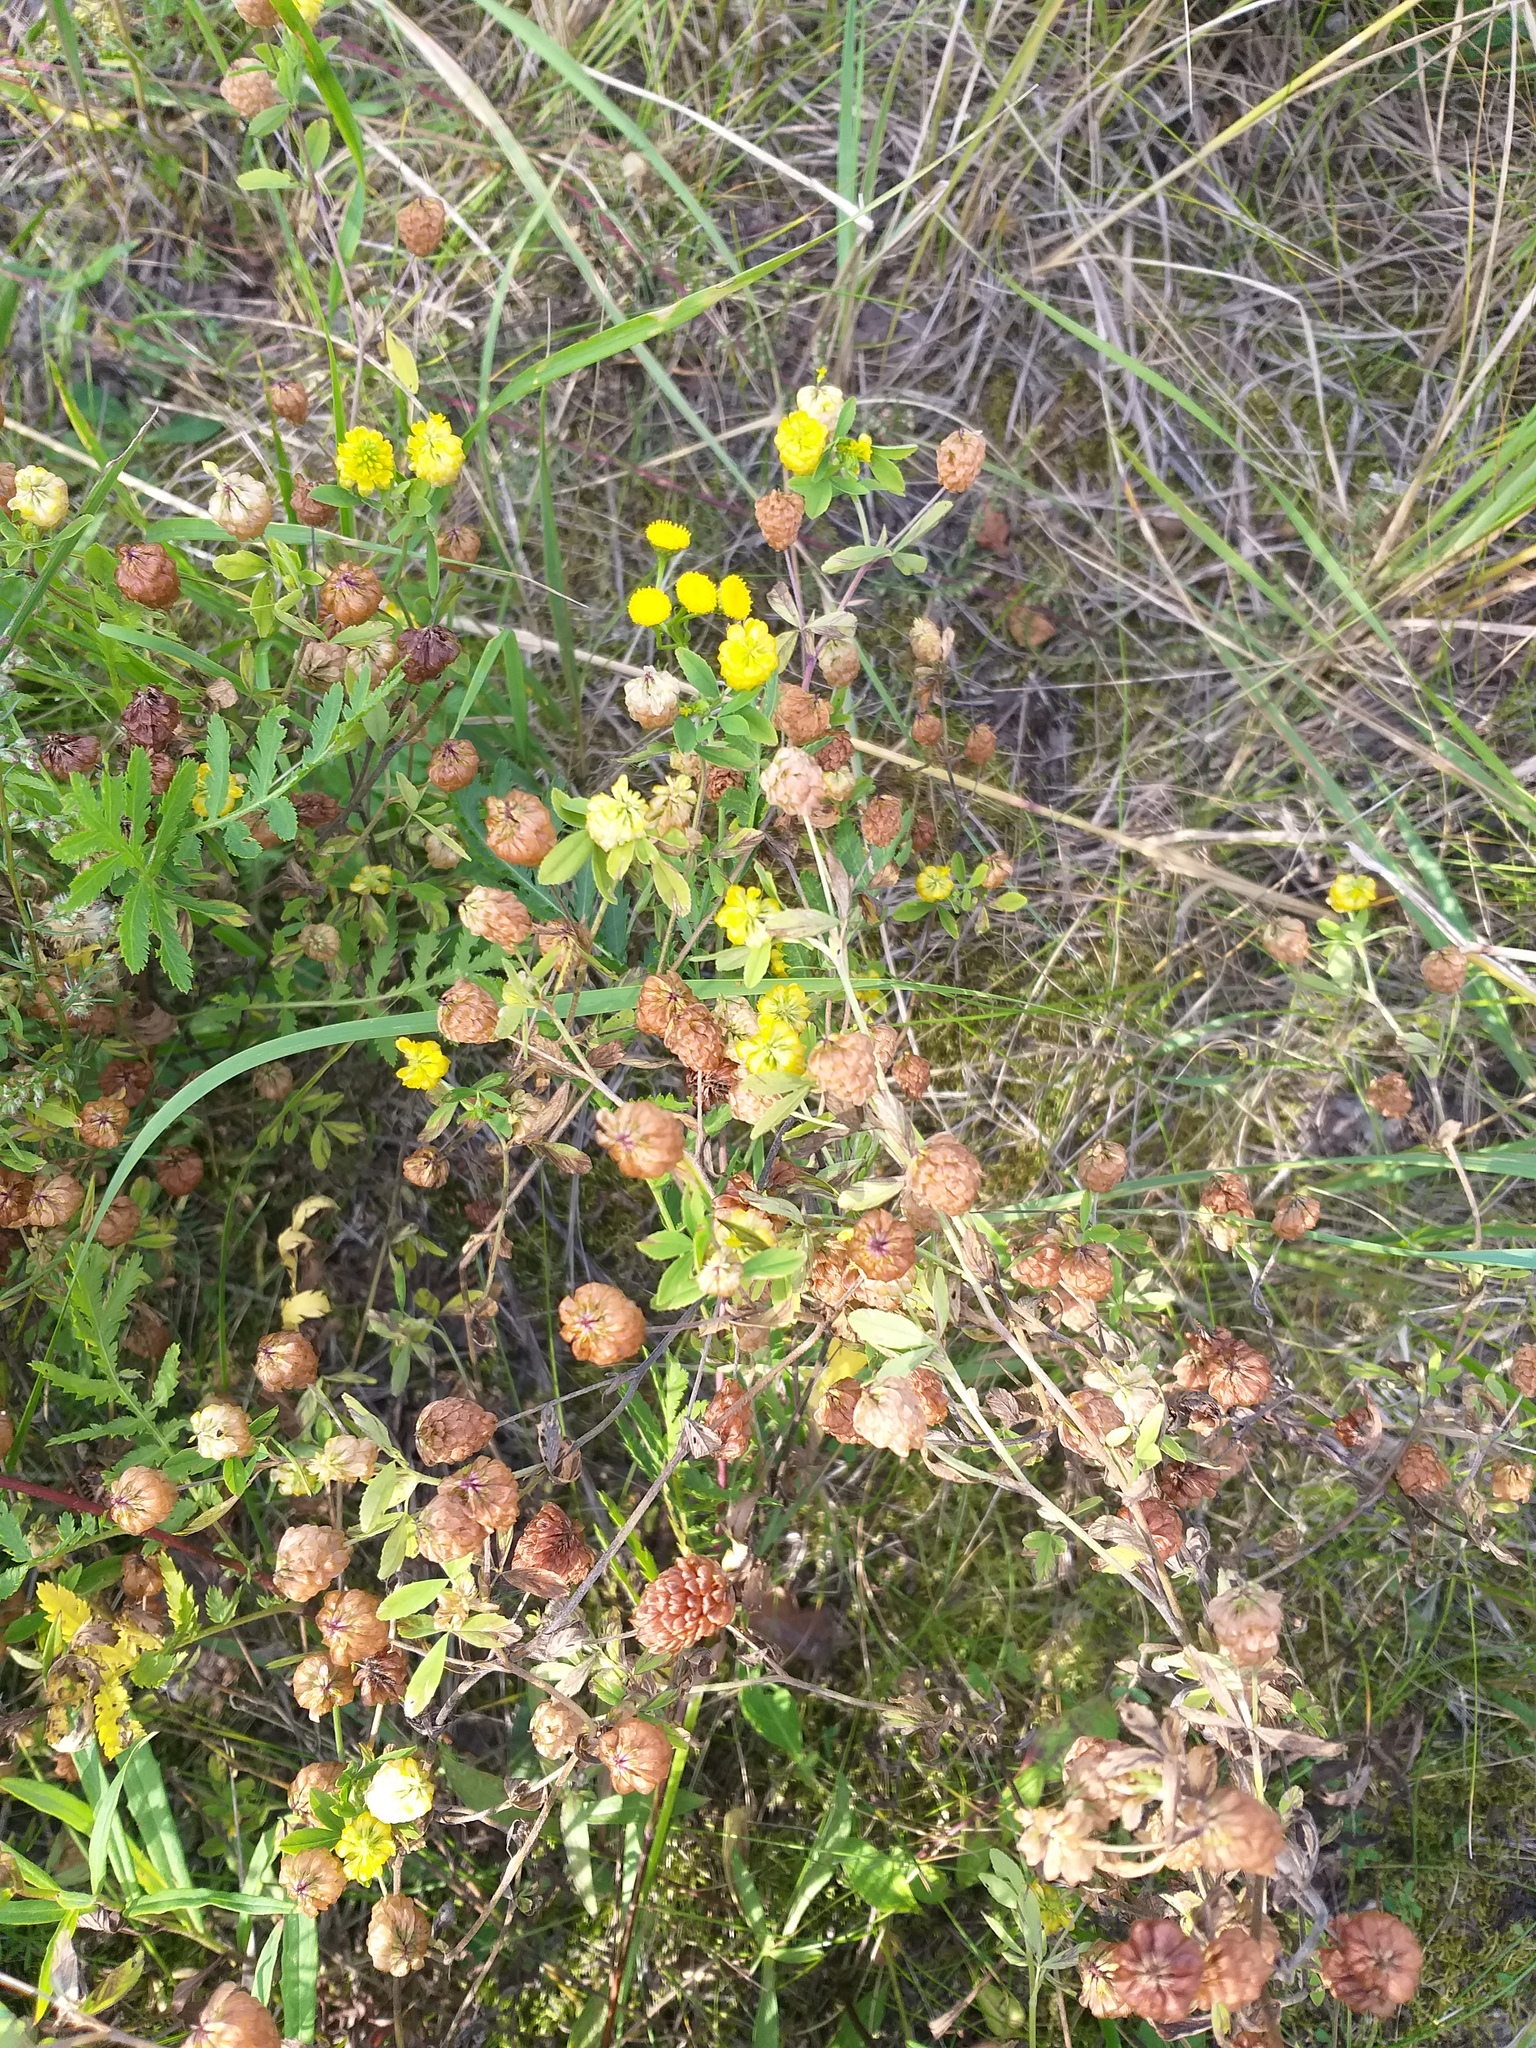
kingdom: Plantae
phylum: Tracheophyta
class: Magnoliopsida
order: Fabales
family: Fabaceae
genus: Trifolium
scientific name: Trifolium aureum
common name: Golden clover
